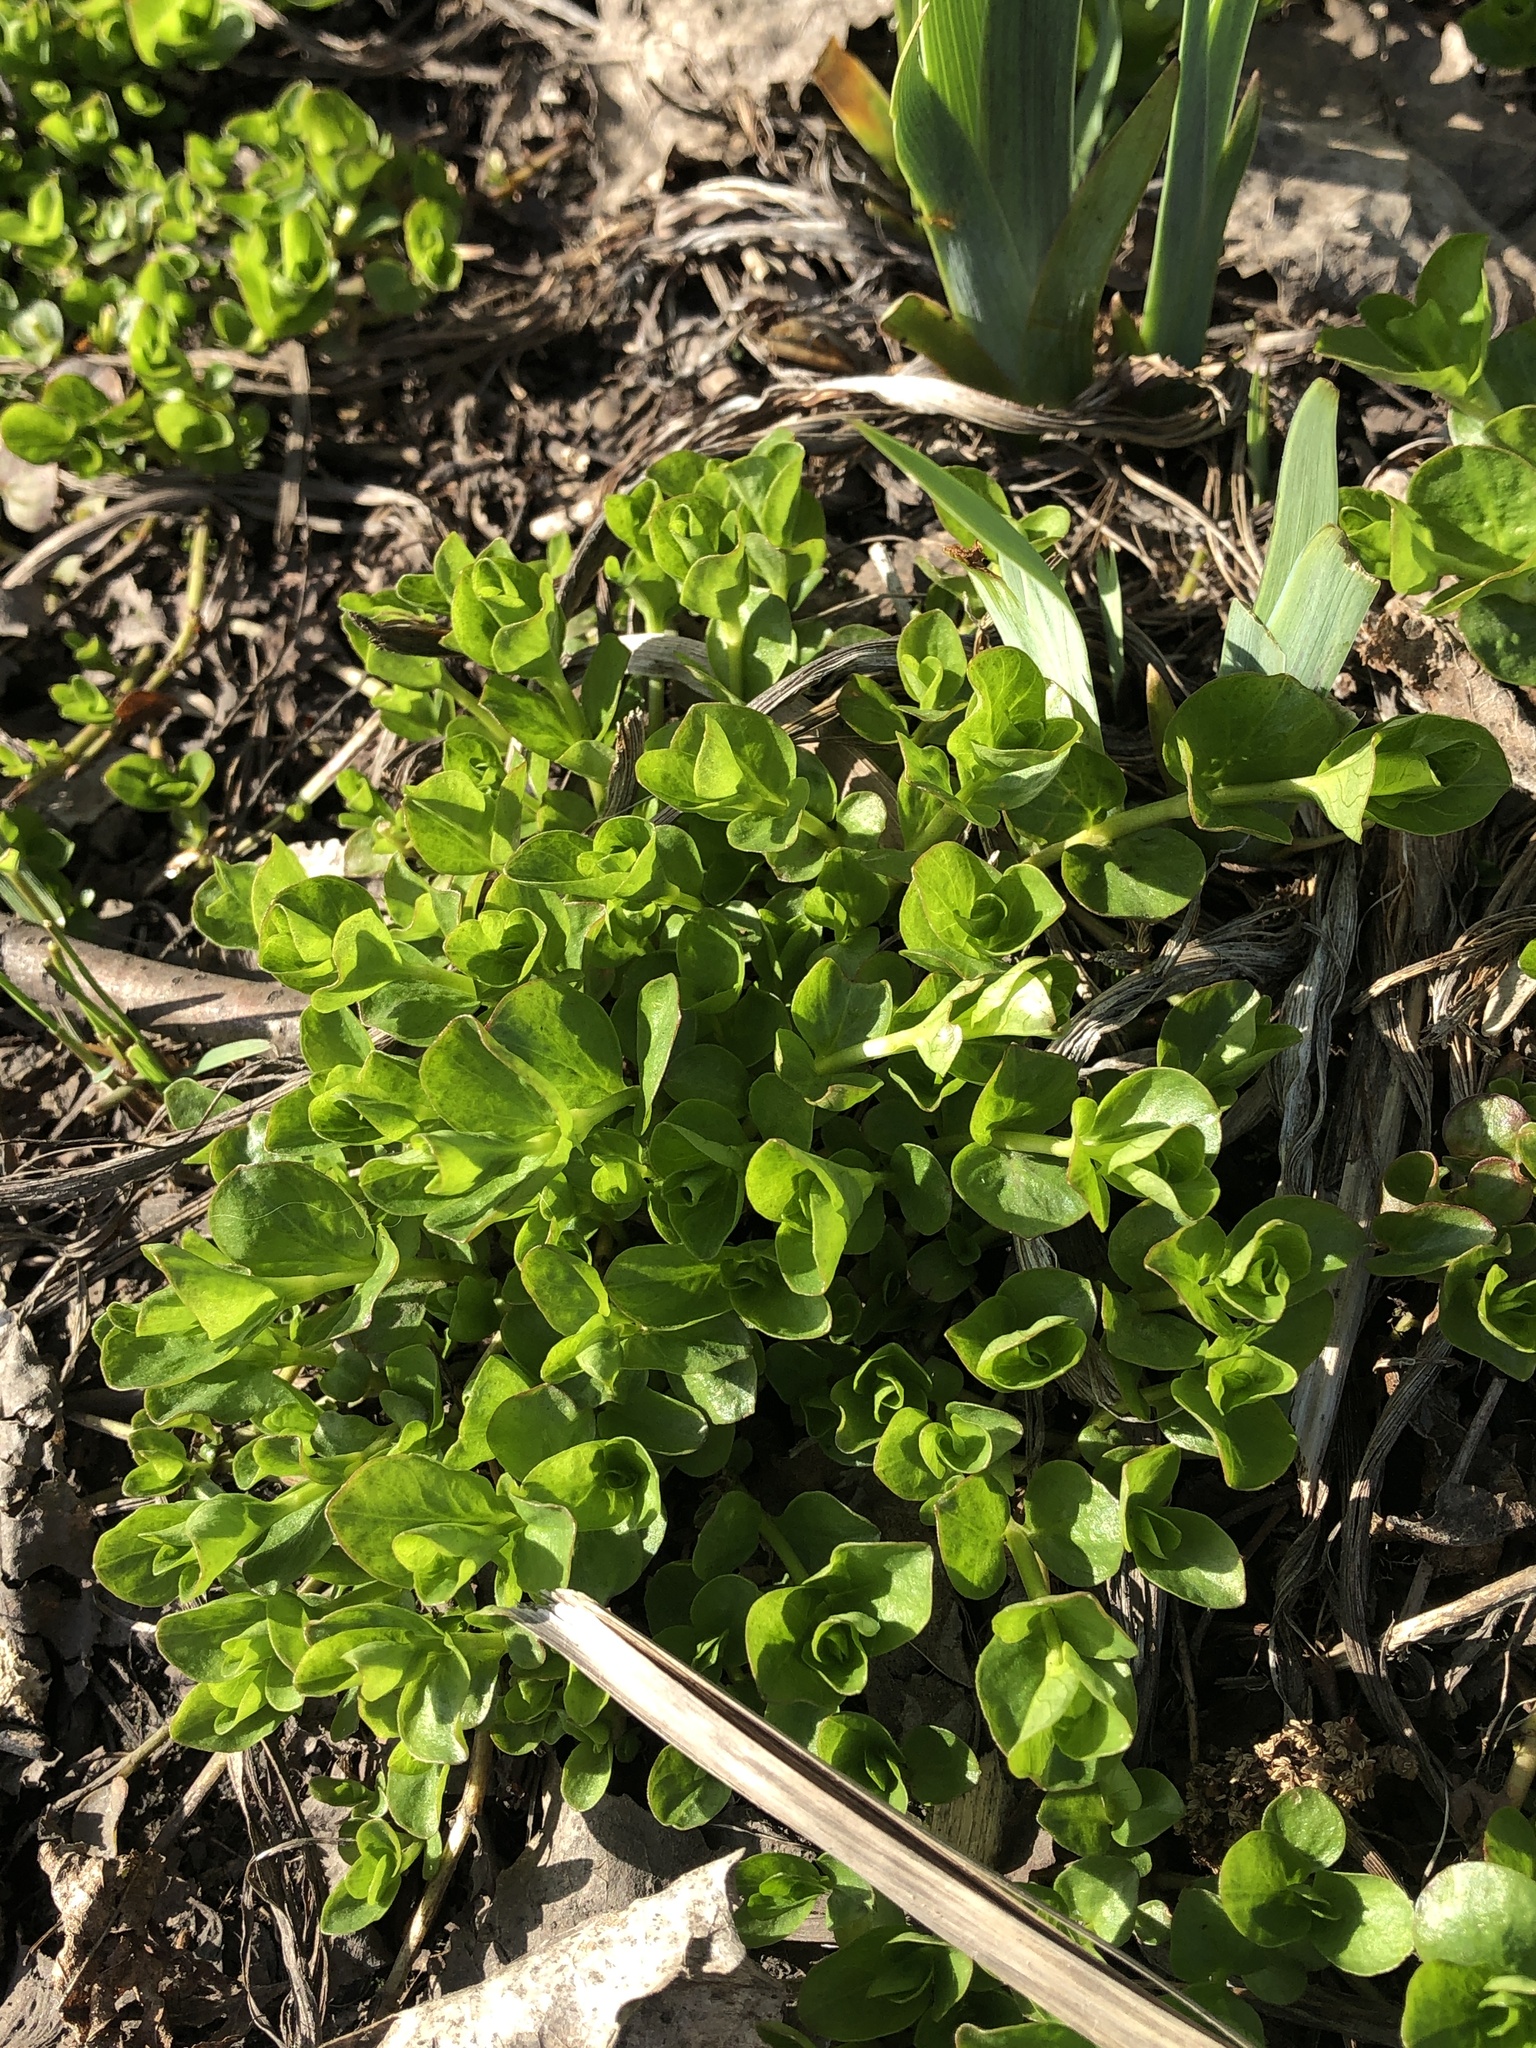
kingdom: Plantae
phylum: Tracheophyta
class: Magnoliopsida
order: Ericales
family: Primulaceae
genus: Lysimachia
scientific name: Lysimachia nummularia
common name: Moneywort
